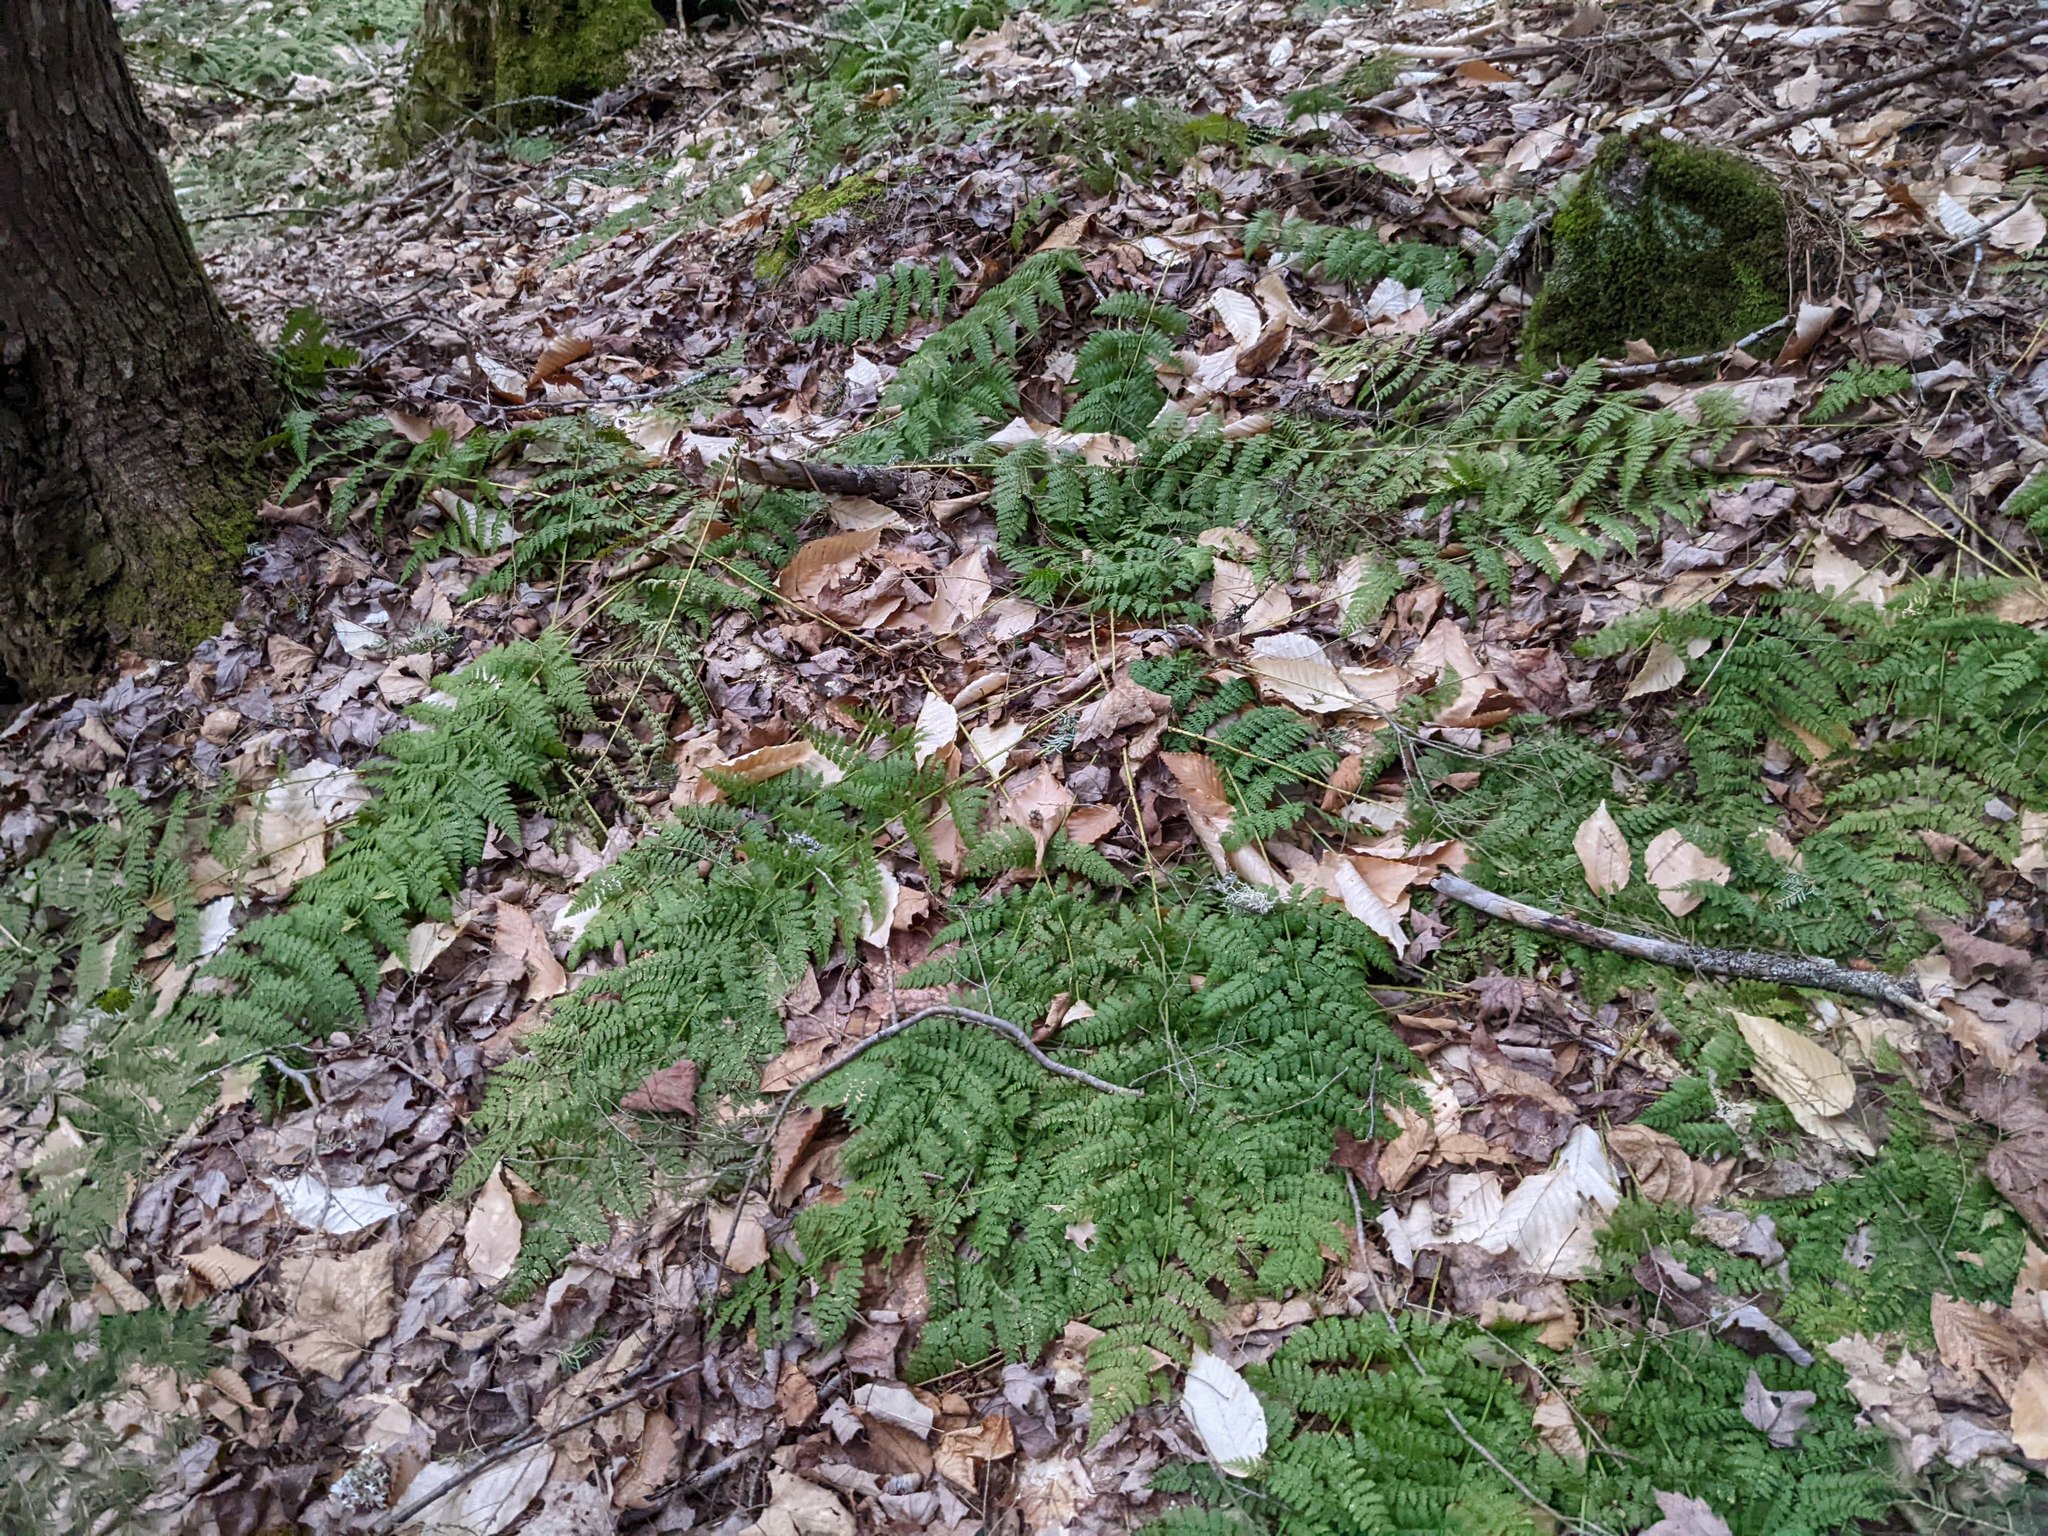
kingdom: Plantae
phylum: Tracheophyta
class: Polypodiopsida
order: Polypodiales
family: Dryopteridaceae
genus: Dryopteris
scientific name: Dryopteris intermedia
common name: Evergreen wood fern
